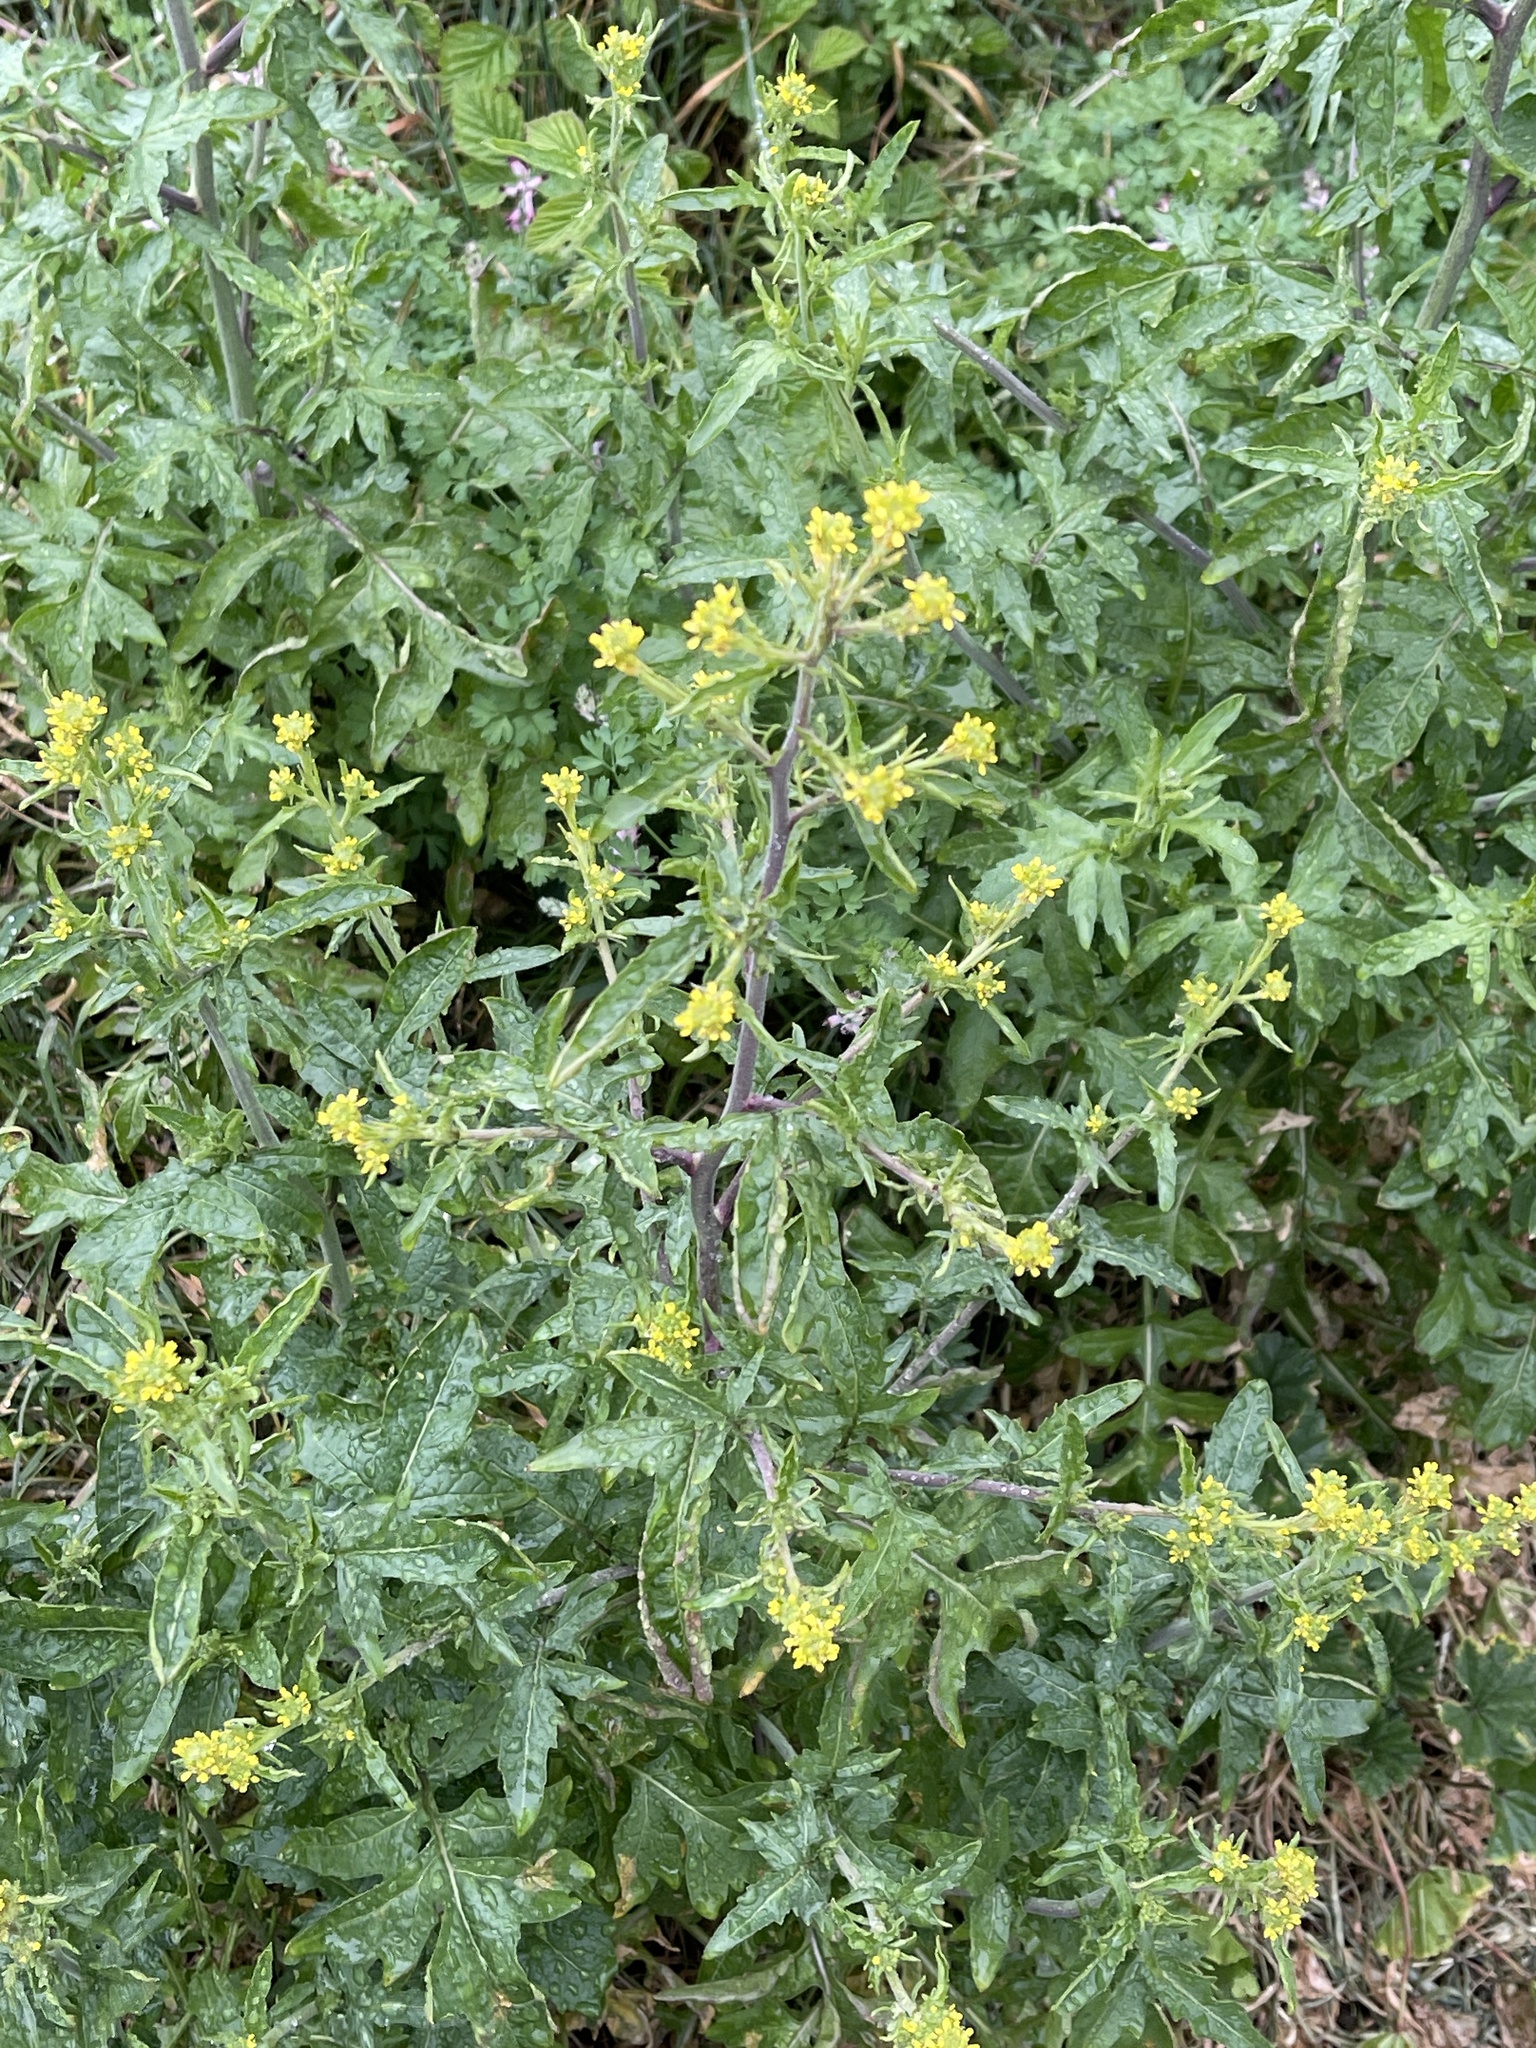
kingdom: Plantae
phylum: Tracheophyta
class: Magnoliopsida
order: Brassicales
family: Brassicaceae
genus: Sisymbrium
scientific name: Sisymbrium officinale
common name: Hedge mustard
